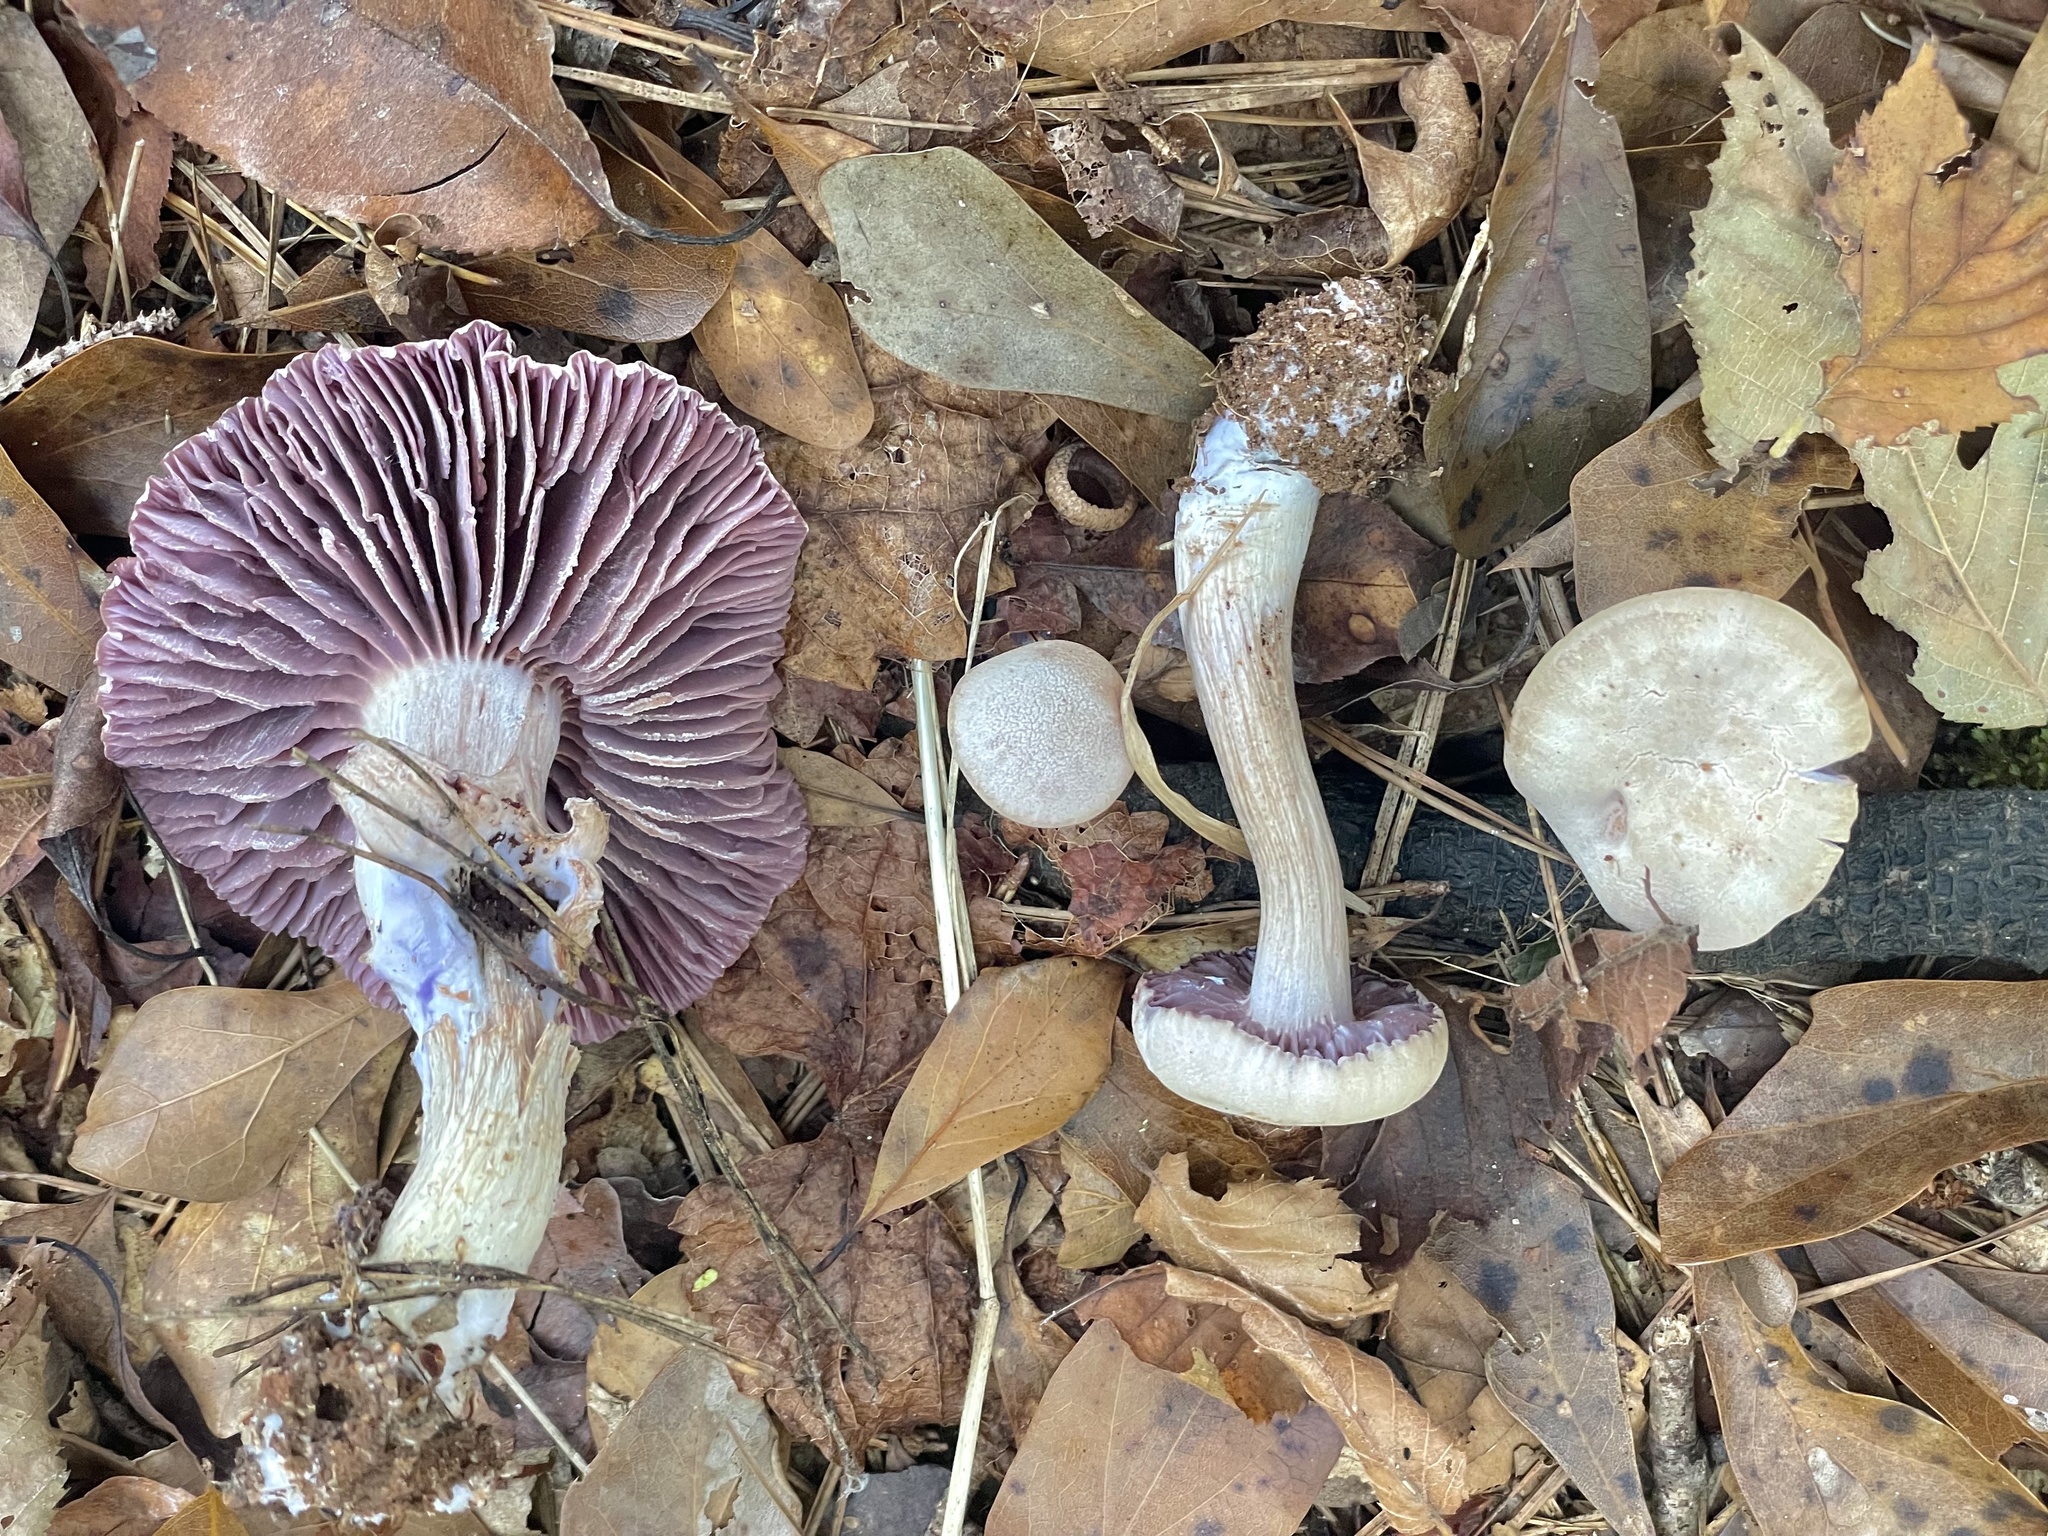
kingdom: Fungi
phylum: Basidiomycota
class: Agaricomycetes
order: Agaricales
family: Hydnangiaceae
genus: Laccaria
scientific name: Laccaria ochropurpurea
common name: Purple laccaria
